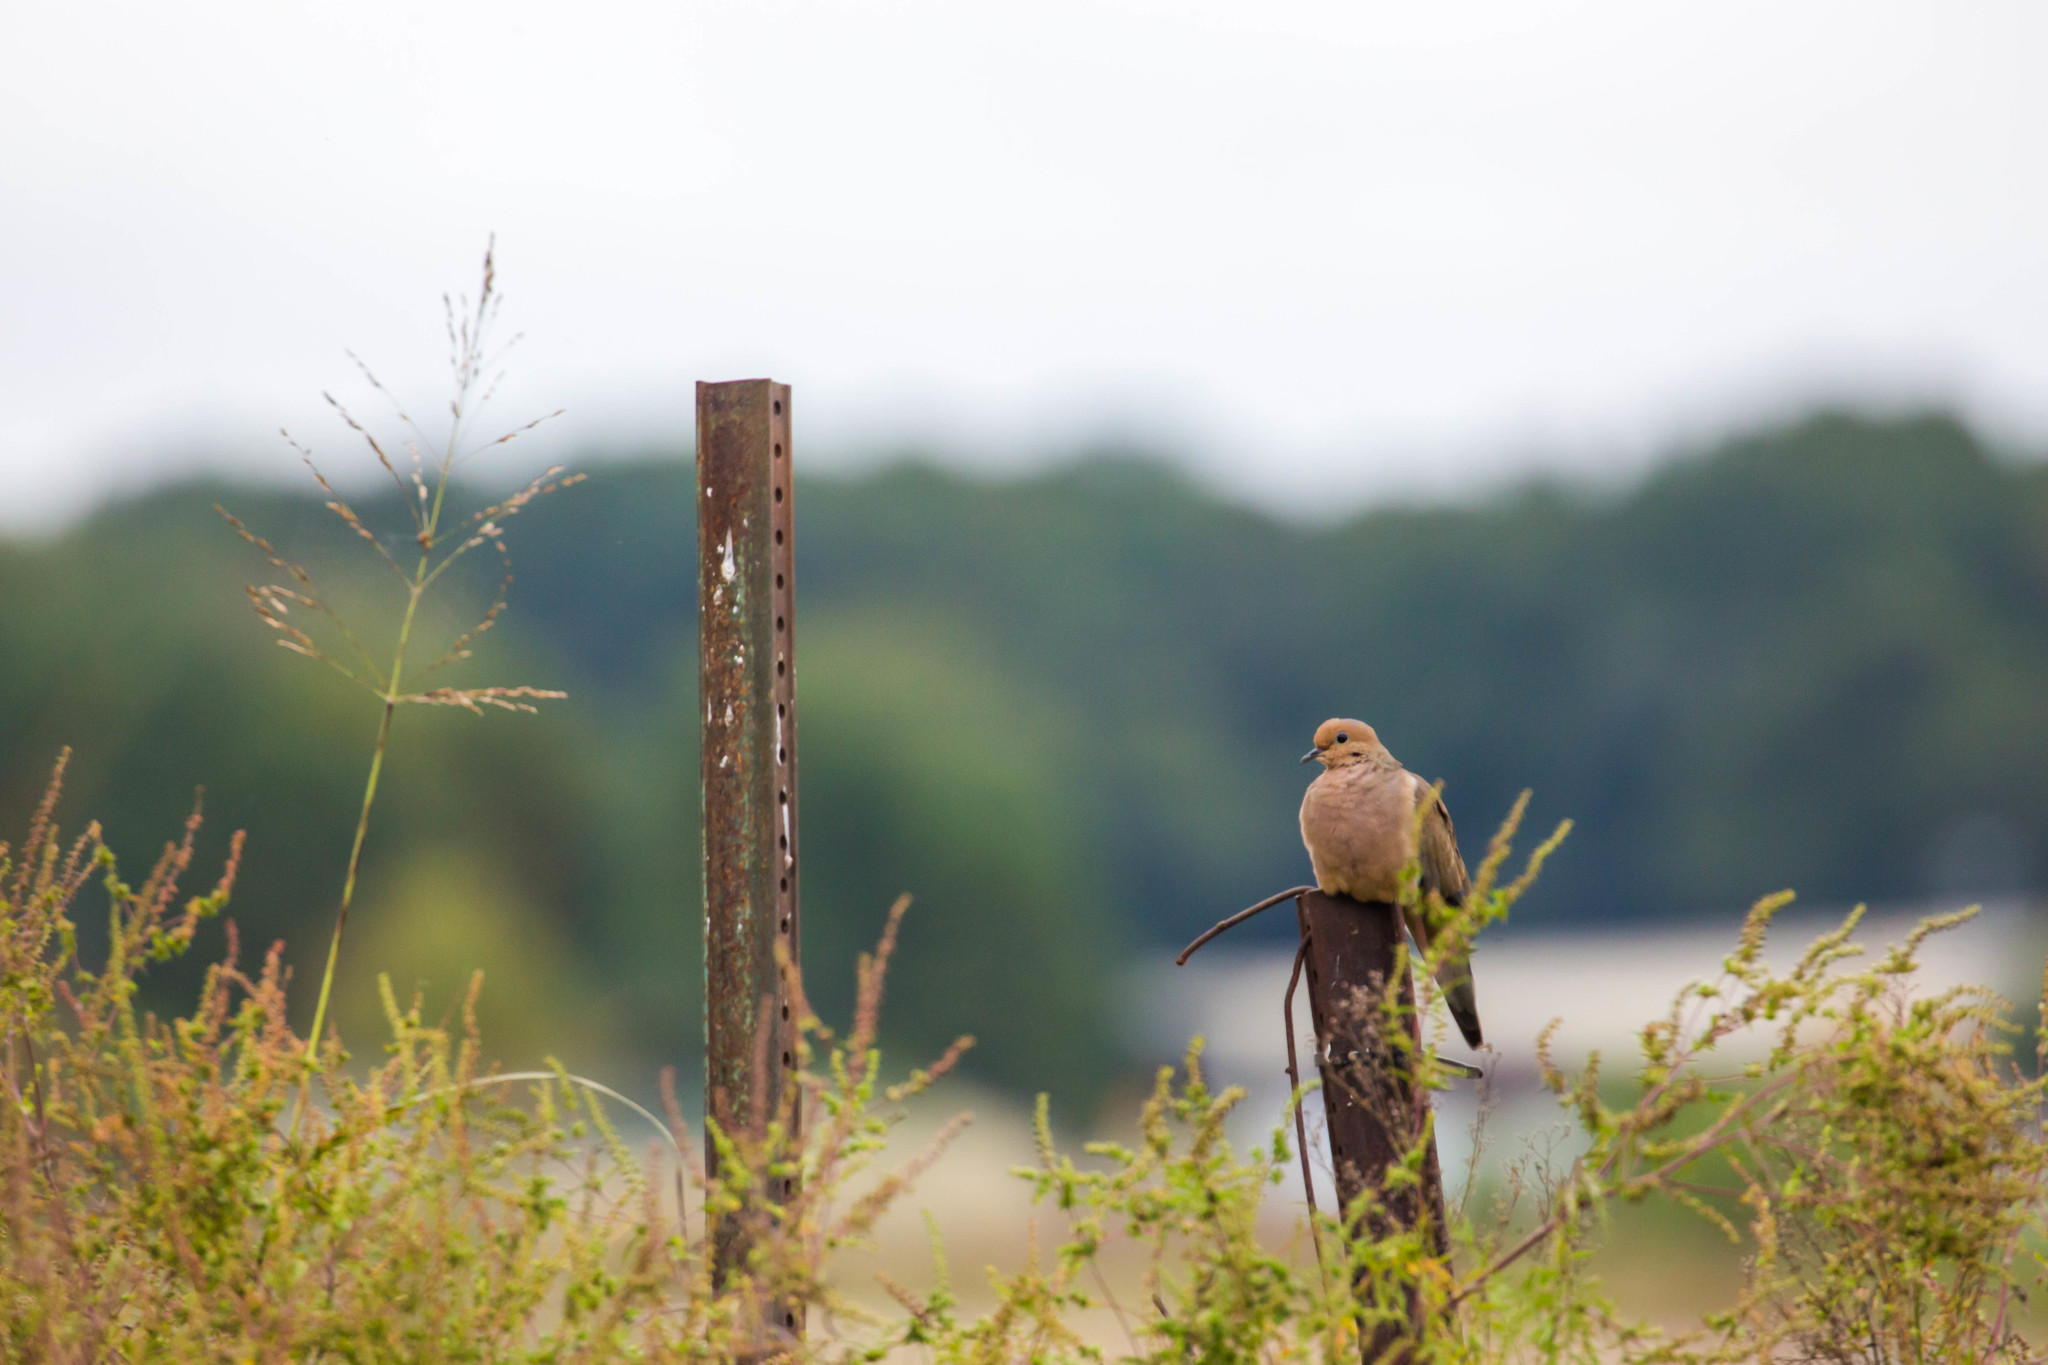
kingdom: Animalia
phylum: Chordata
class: Aves
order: Columbiformes
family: Columbidae
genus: Zenaida
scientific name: Zenaida macroura
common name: Mourning dove
